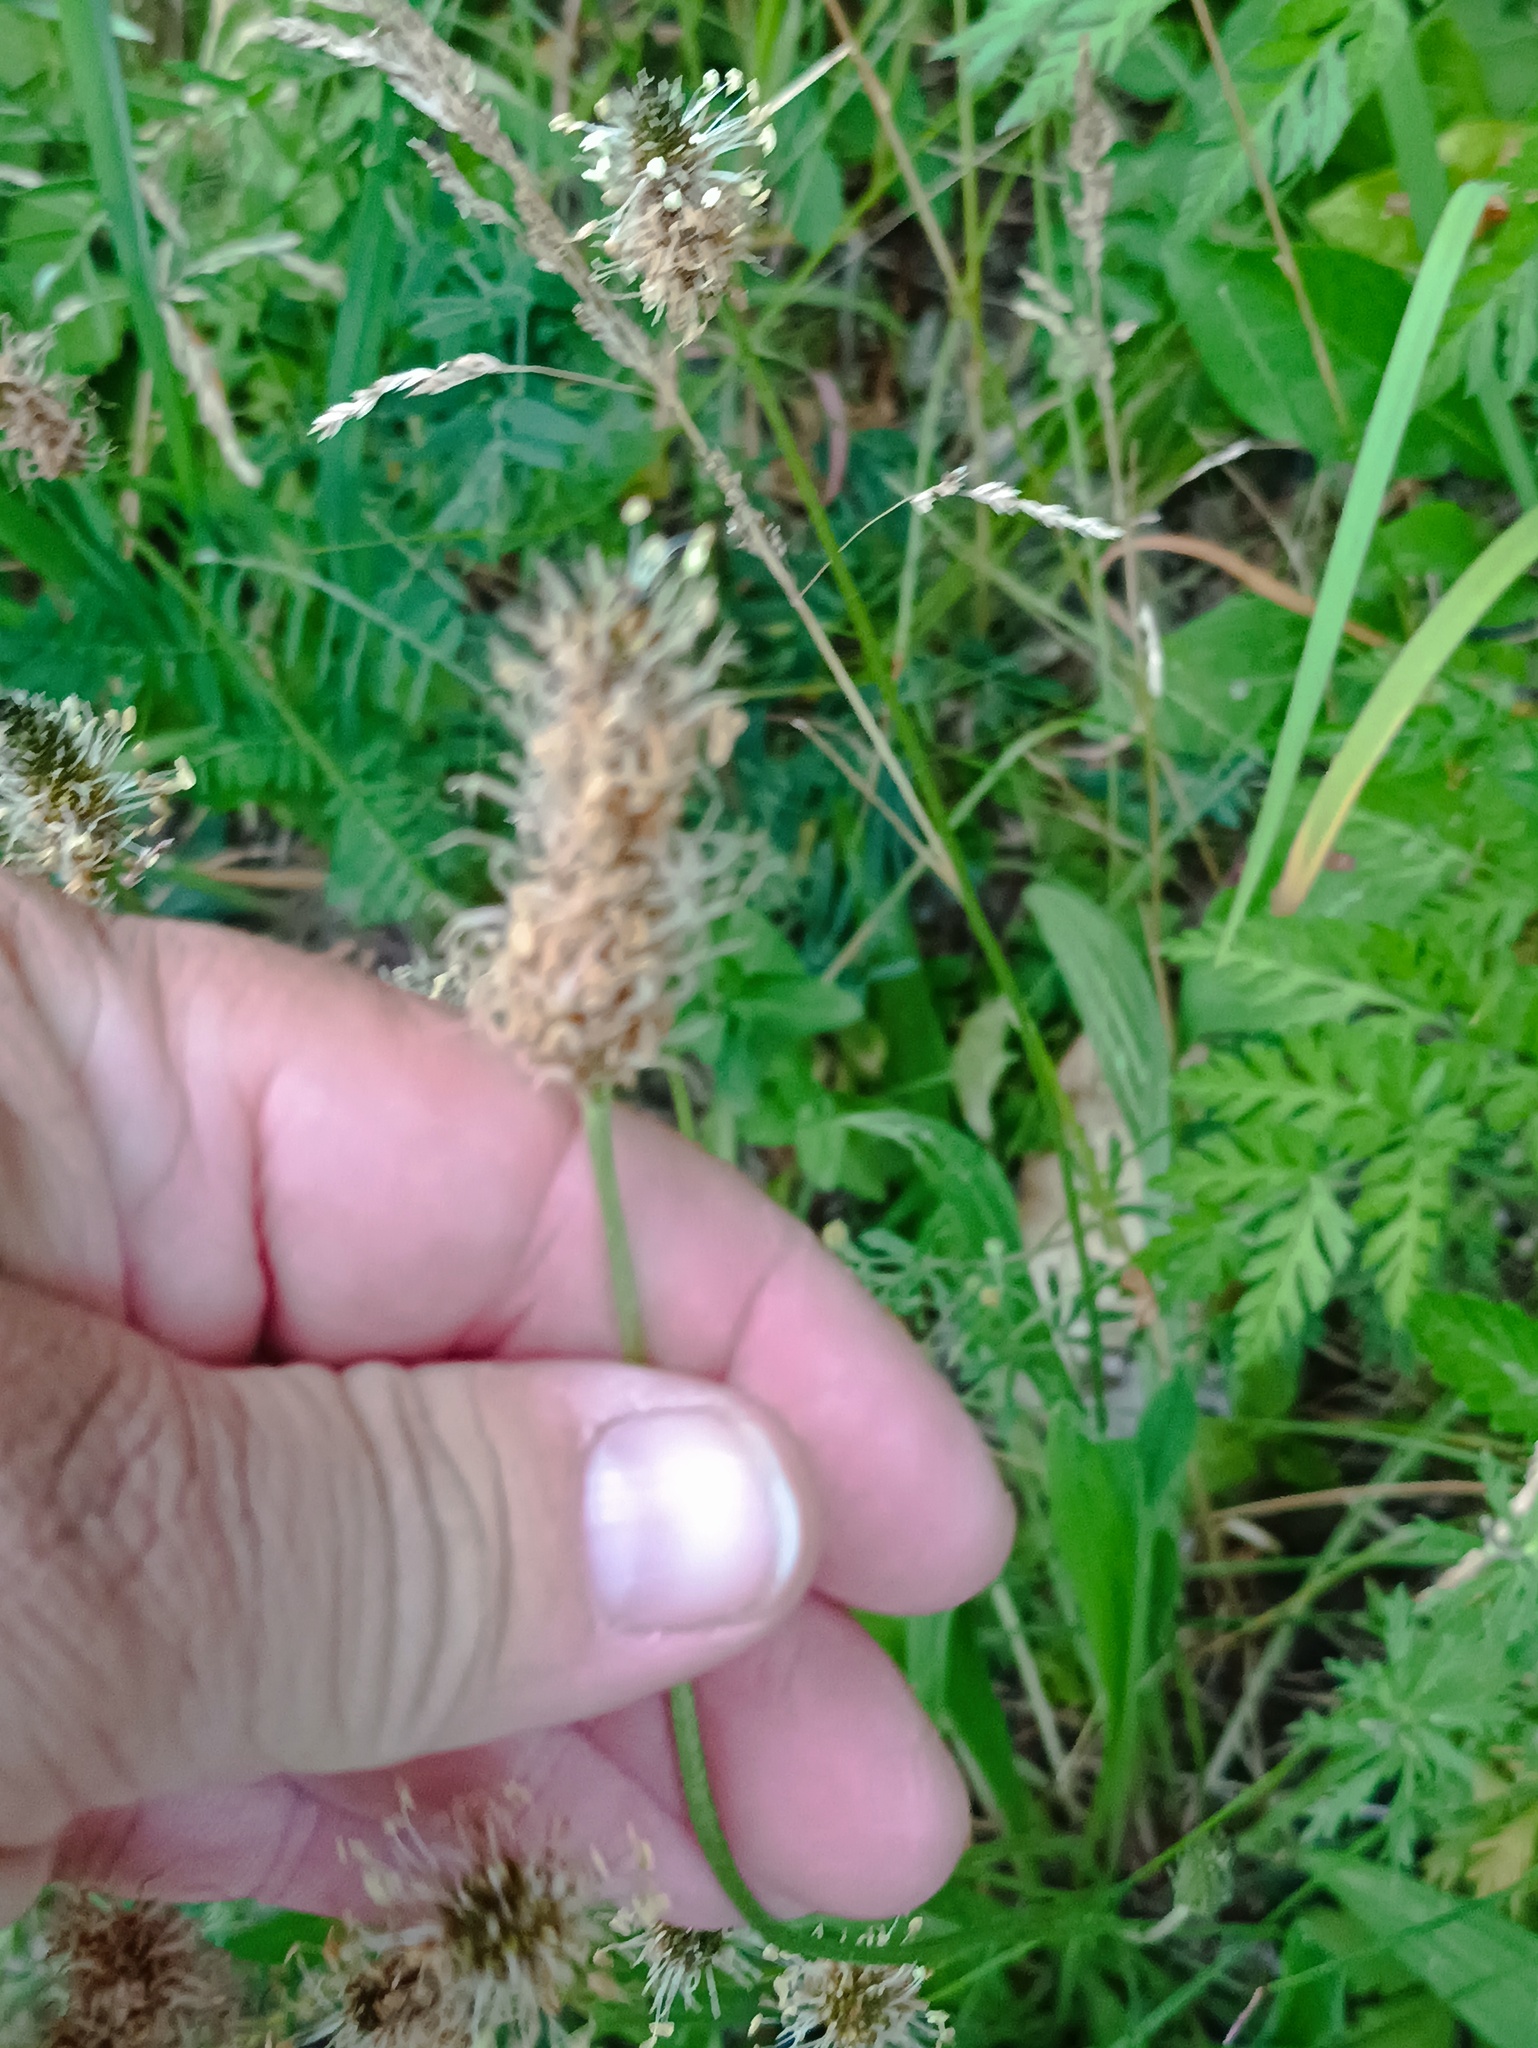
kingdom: Plantae
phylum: Tracheophyta
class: Magnoliopsida
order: Lamiales
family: Plantaginaceae
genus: Plantago
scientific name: Plantago lanceolata
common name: Ribwort plantain
